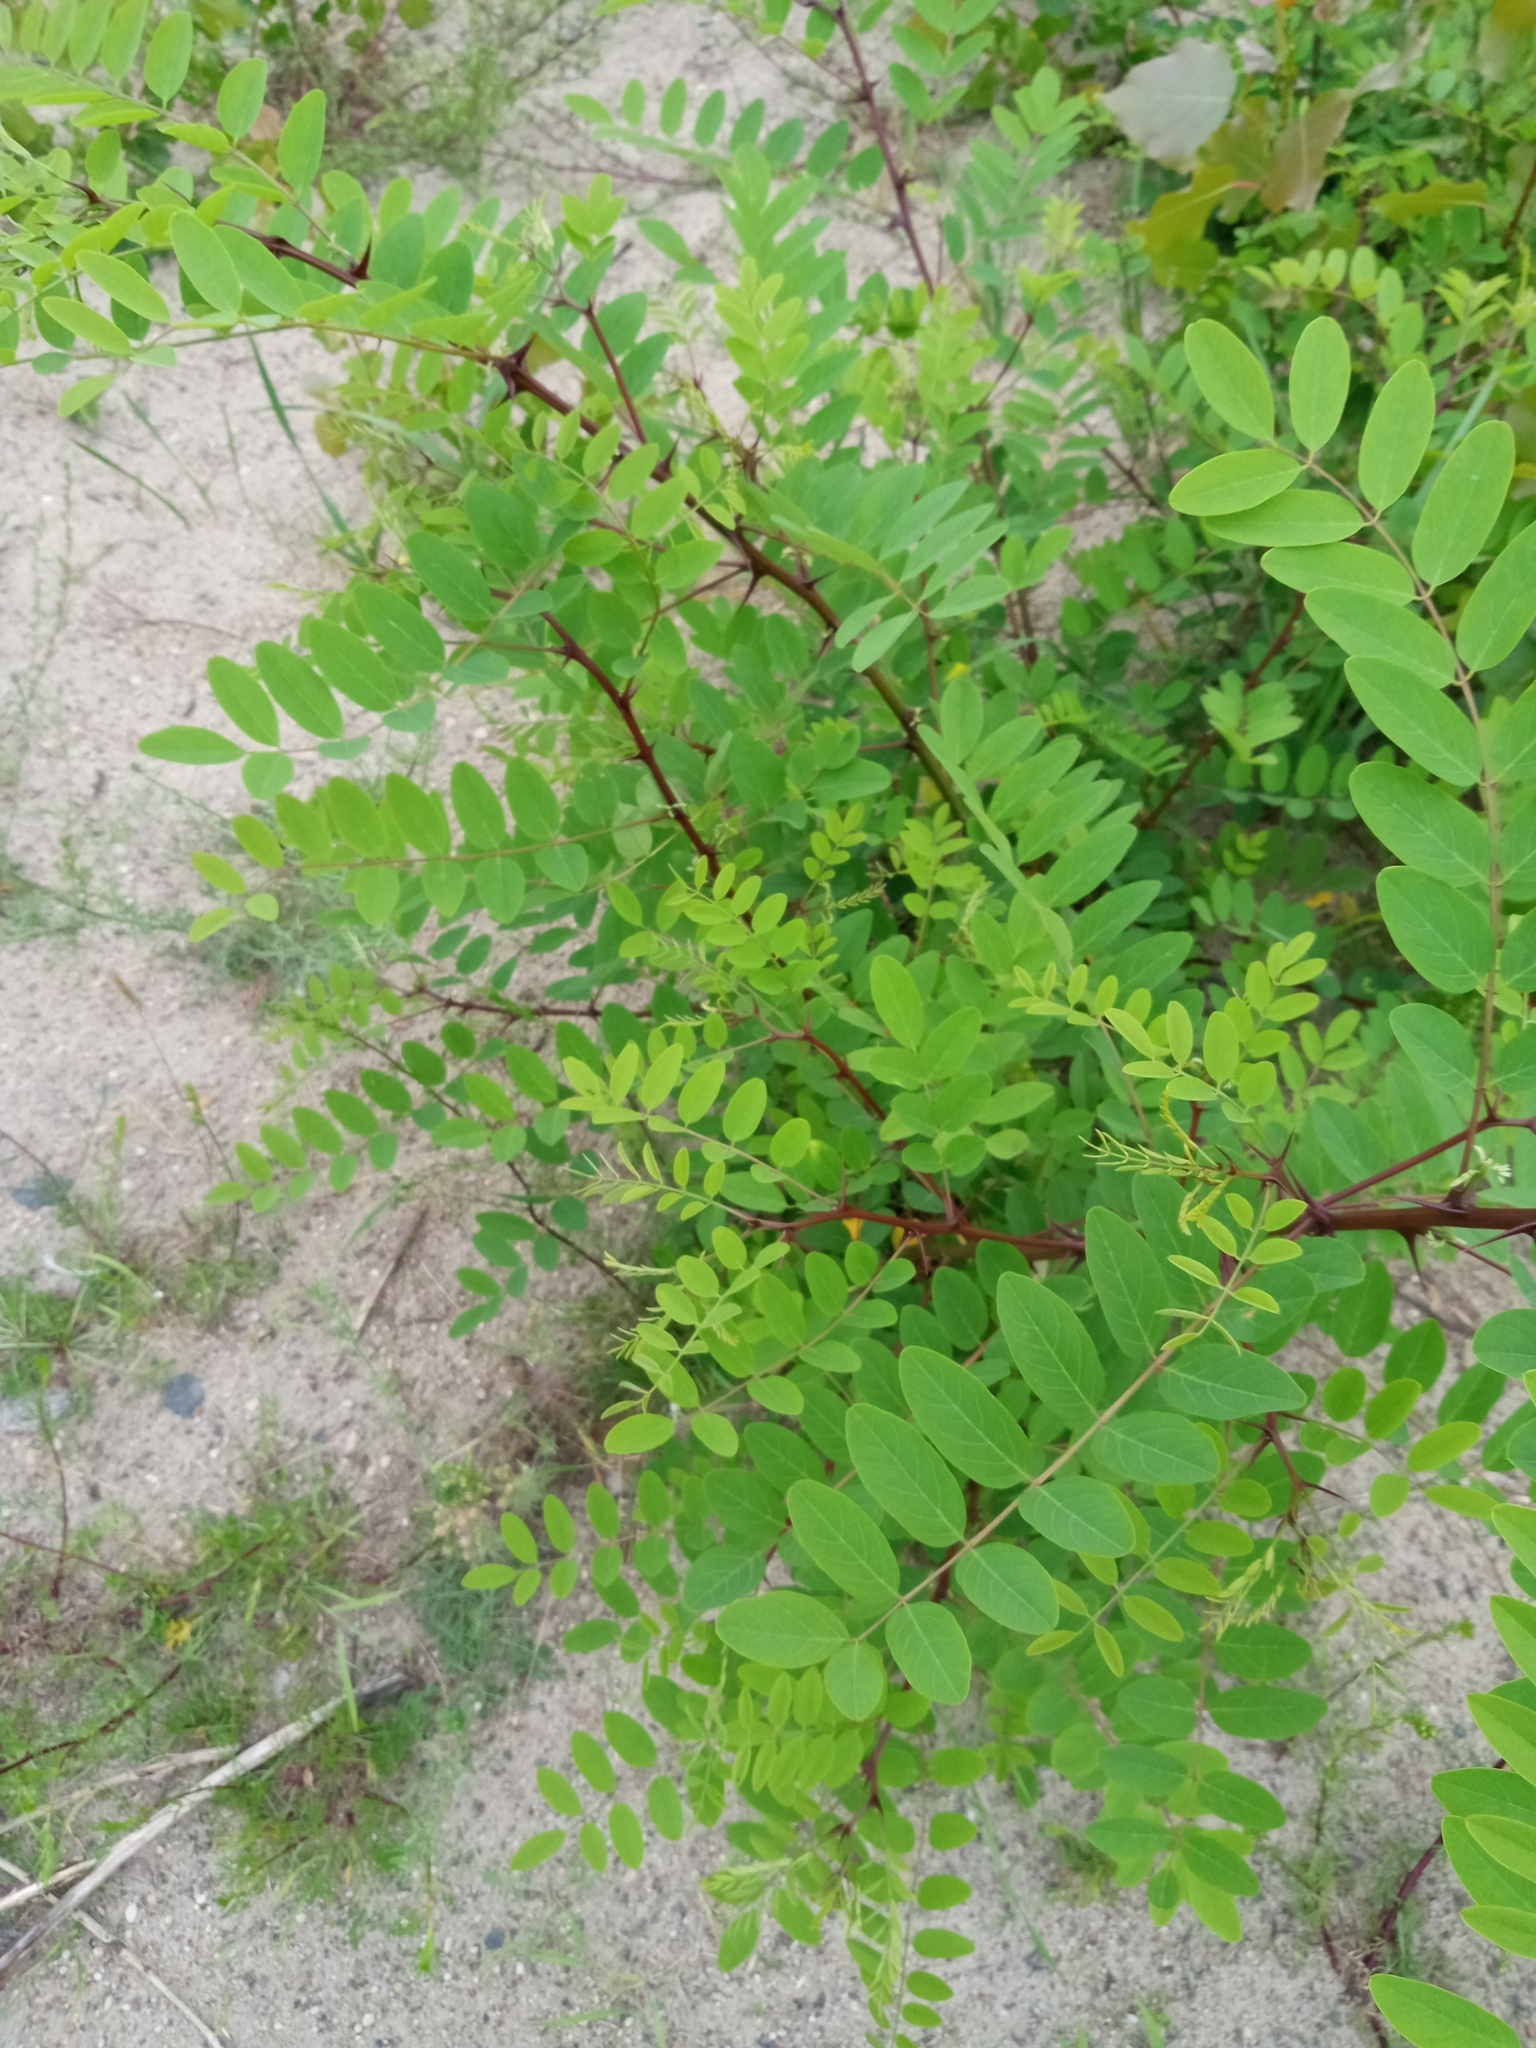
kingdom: Plantae
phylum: Tracheophyta
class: Magnoliopsida
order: Fabales
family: Fabaceae
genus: Robinia
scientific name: Robinia pseudoacacia
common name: Black locust
